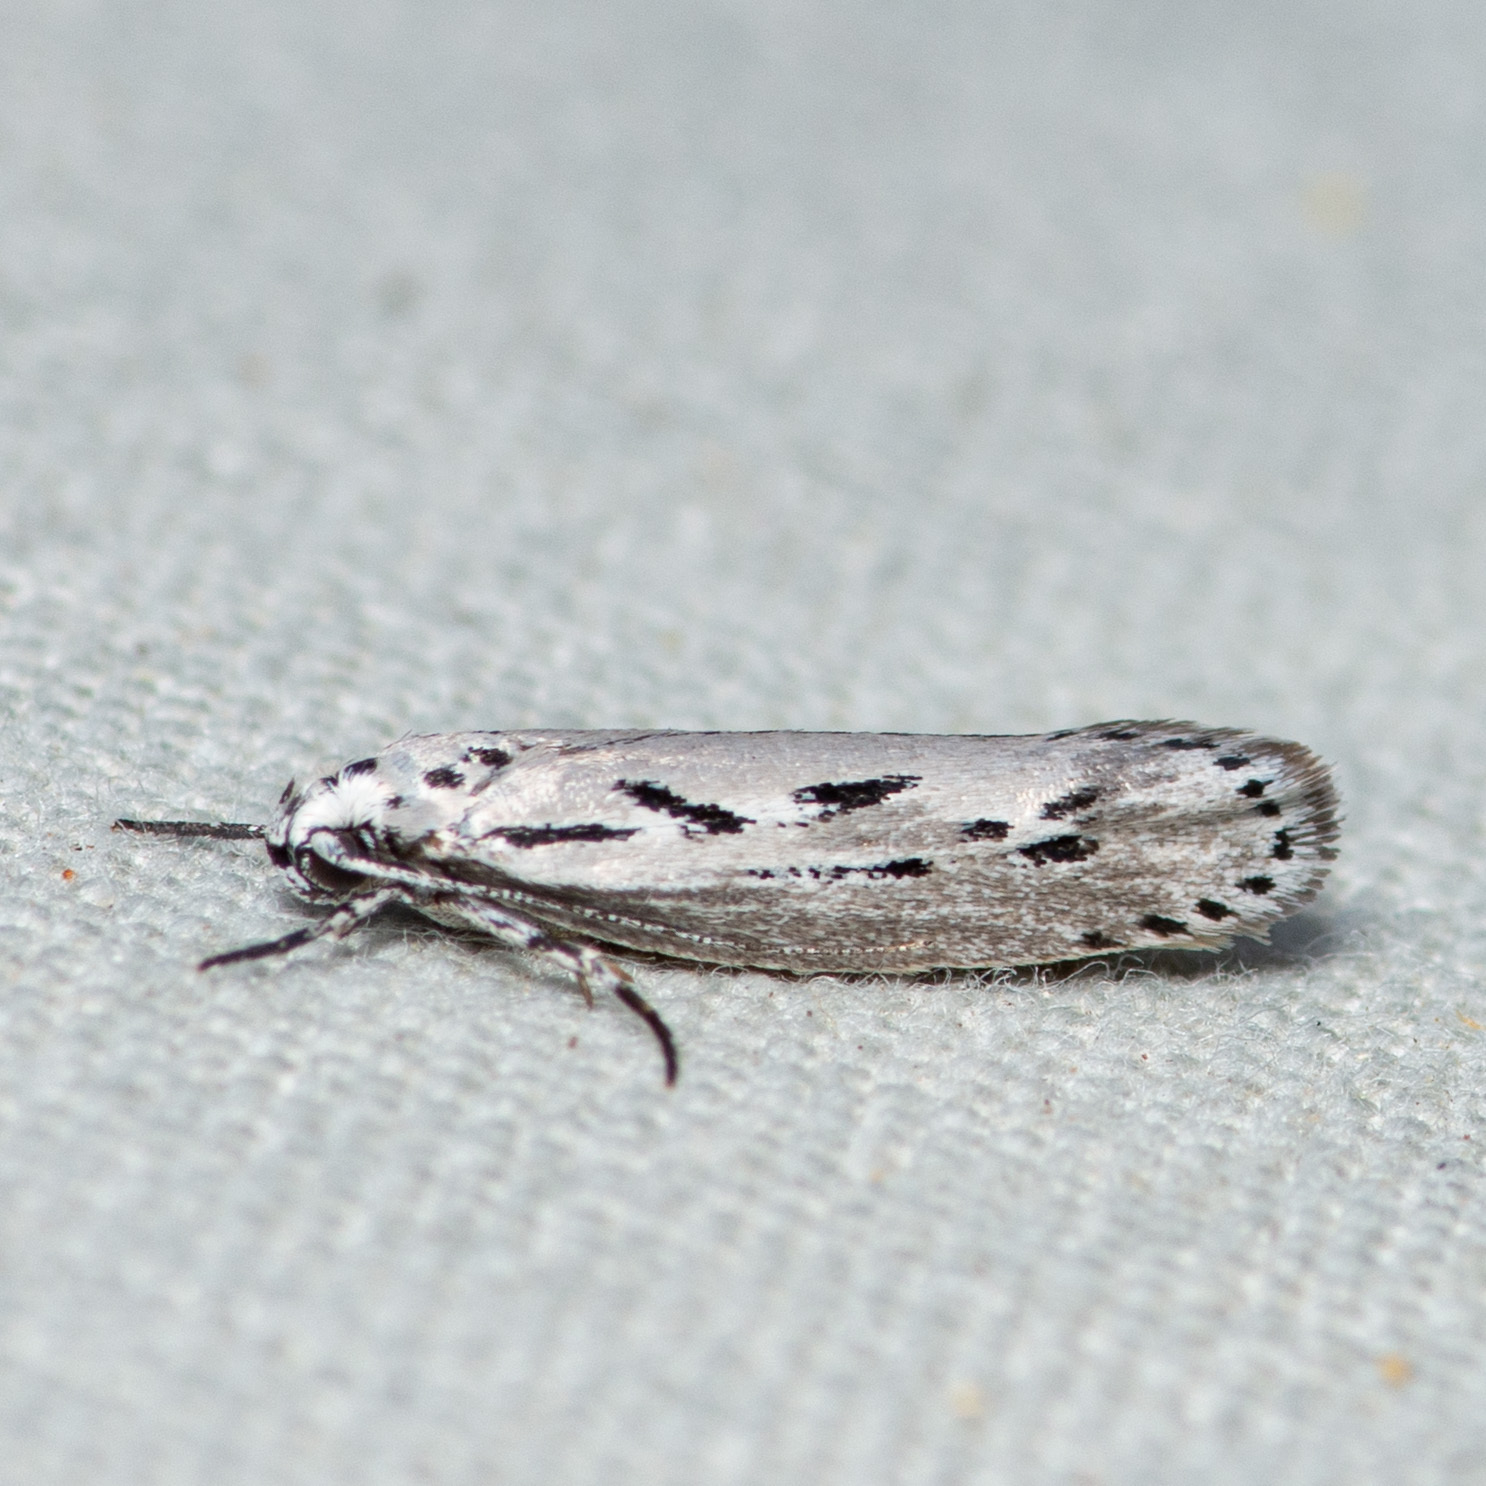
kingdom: Animalia
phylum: Arthropoda
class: Insecta
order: Lepidoptera
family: Ethmiidae
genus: Ethmia
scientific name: Ethmia discostrigella
